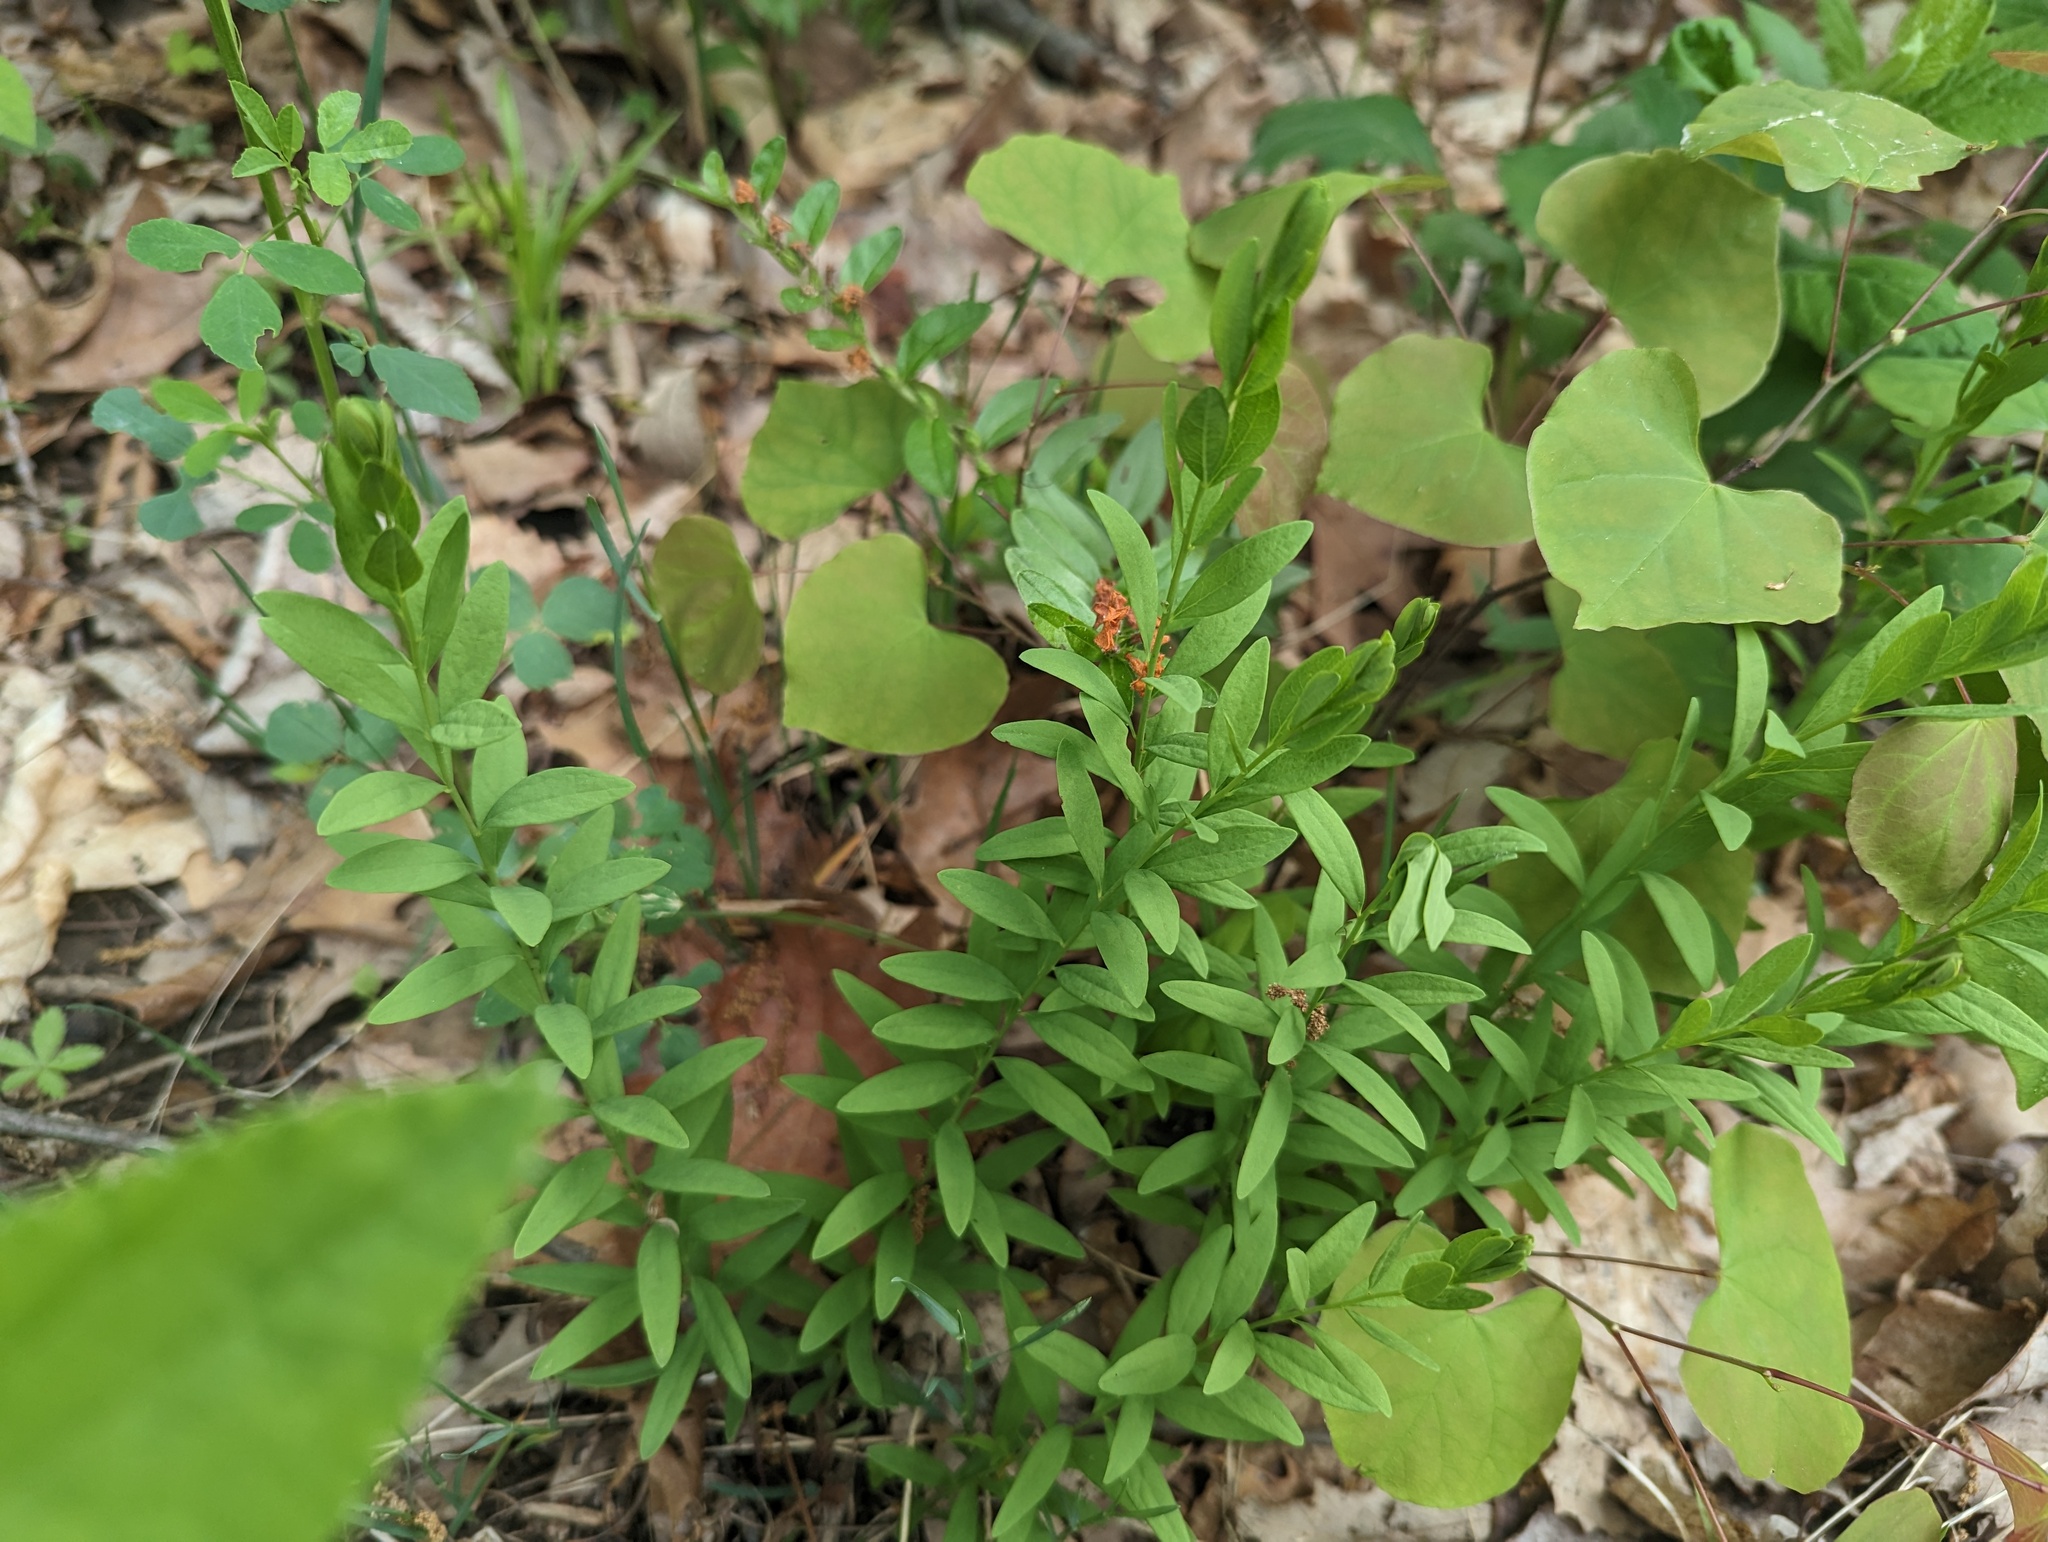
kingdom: Plantae
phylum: Tracheophyta
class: Magnoliopsida
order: Santalales
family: Comandraceae
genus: Comandra
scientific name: Comandra umbellata
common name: Bastard toadflax
